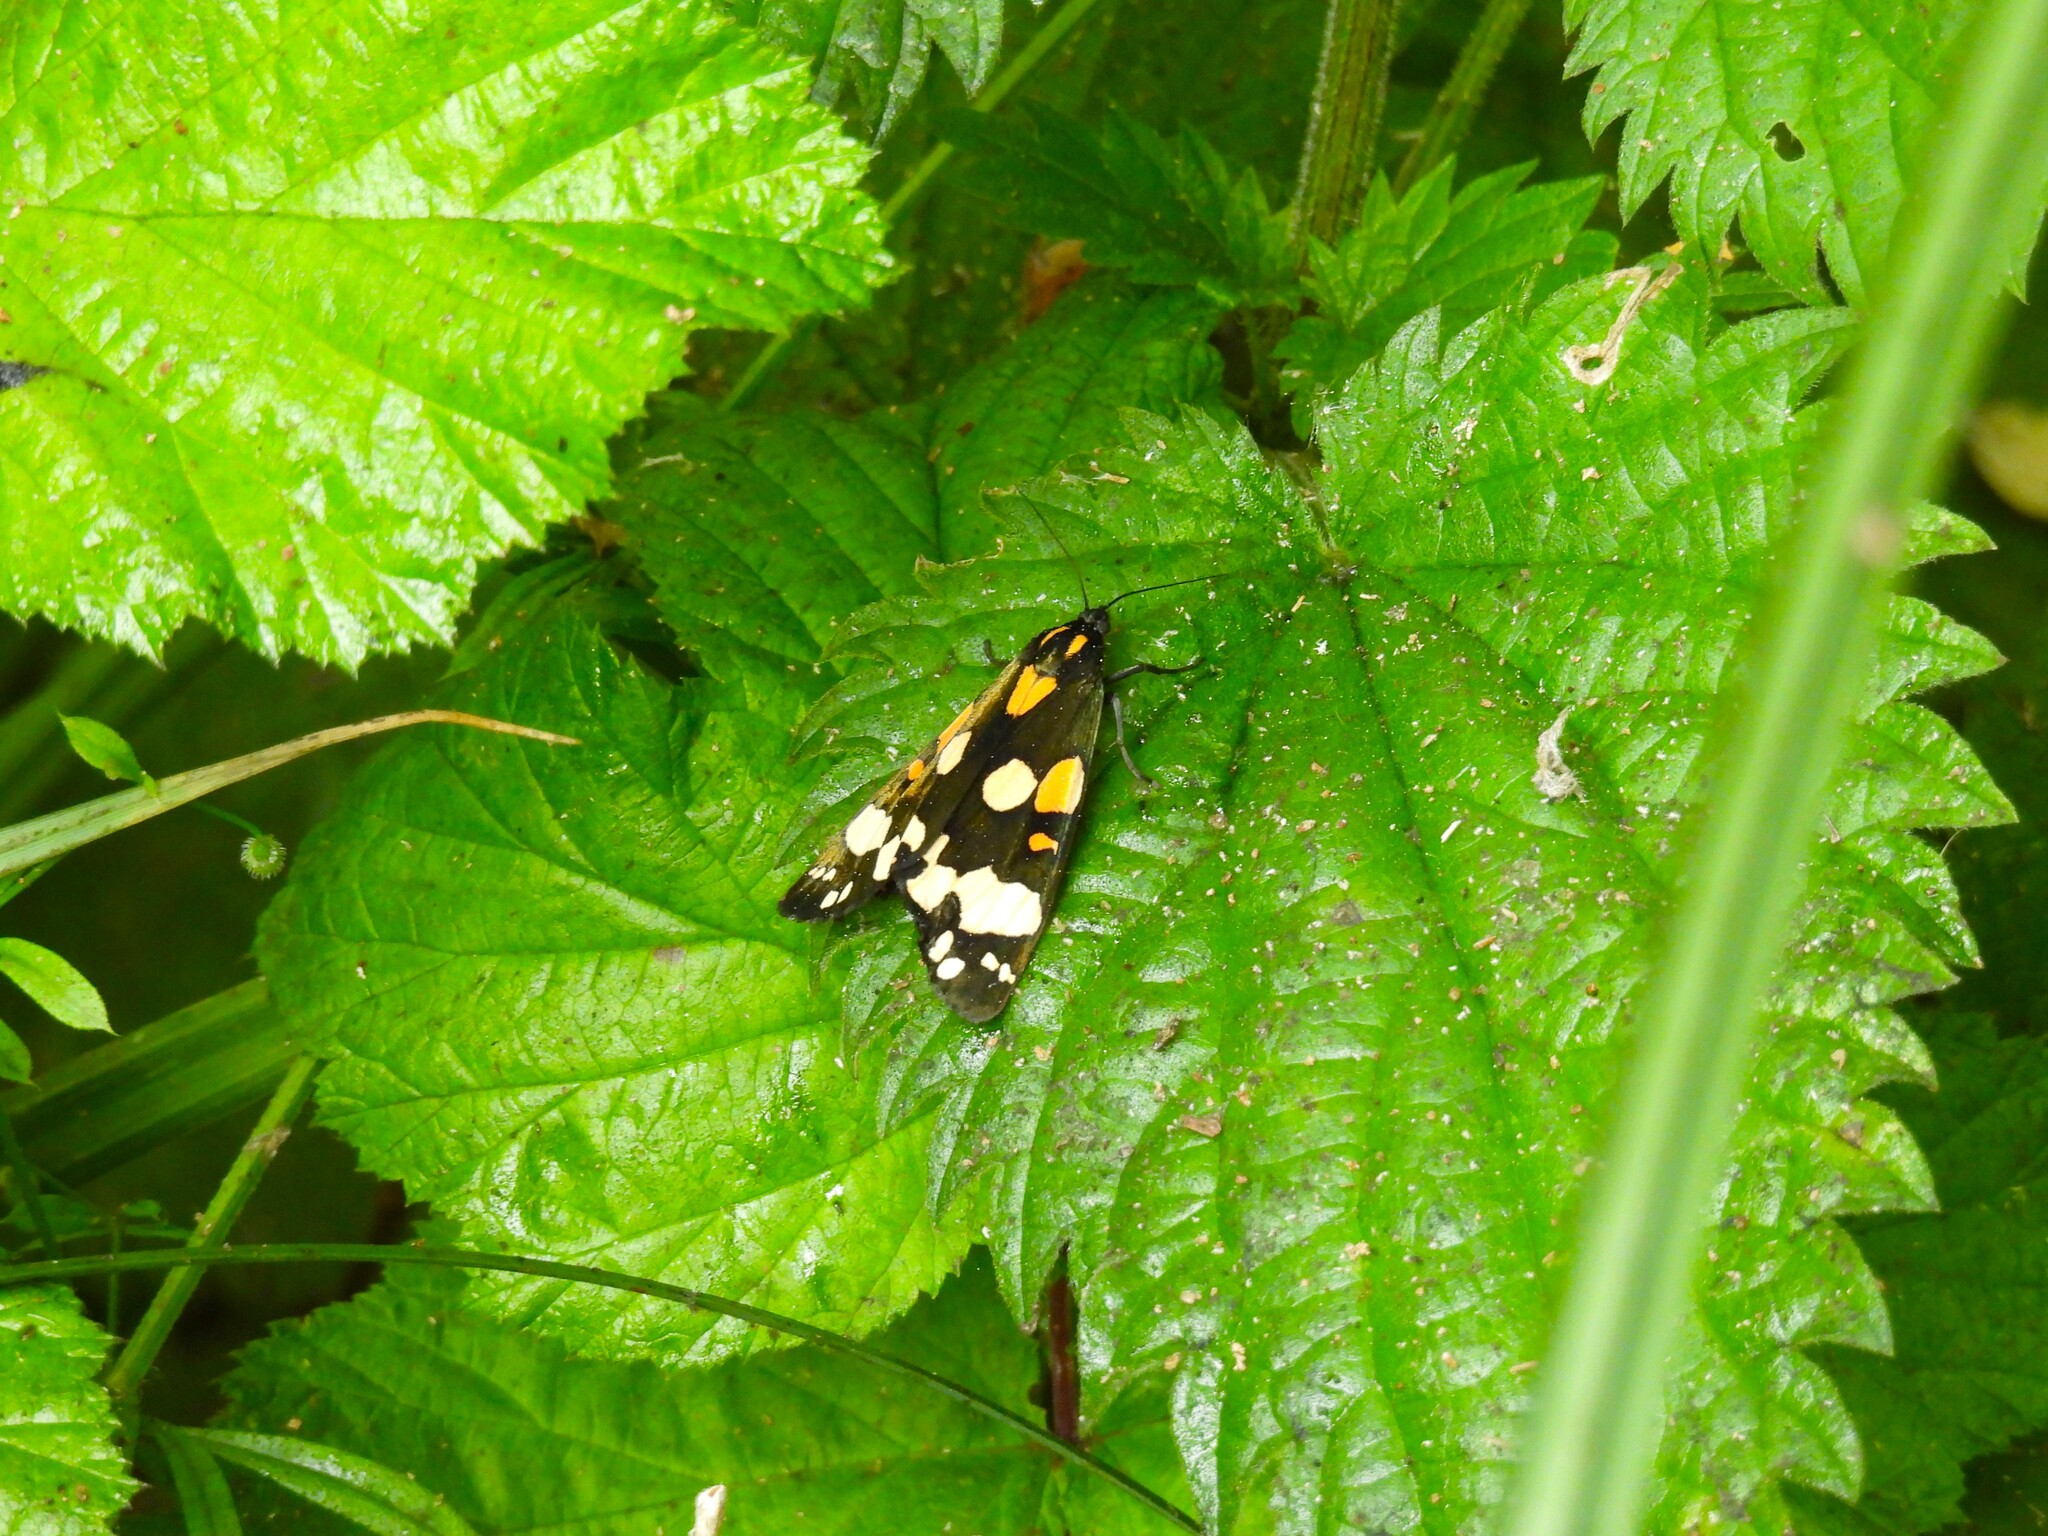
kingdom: Animalia
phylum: Arthropoda
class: Insecta
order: Lepidoptera
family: Erebidae
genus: Callimorpha
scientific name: Callimorpha dominula
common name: Scarlet tiger
